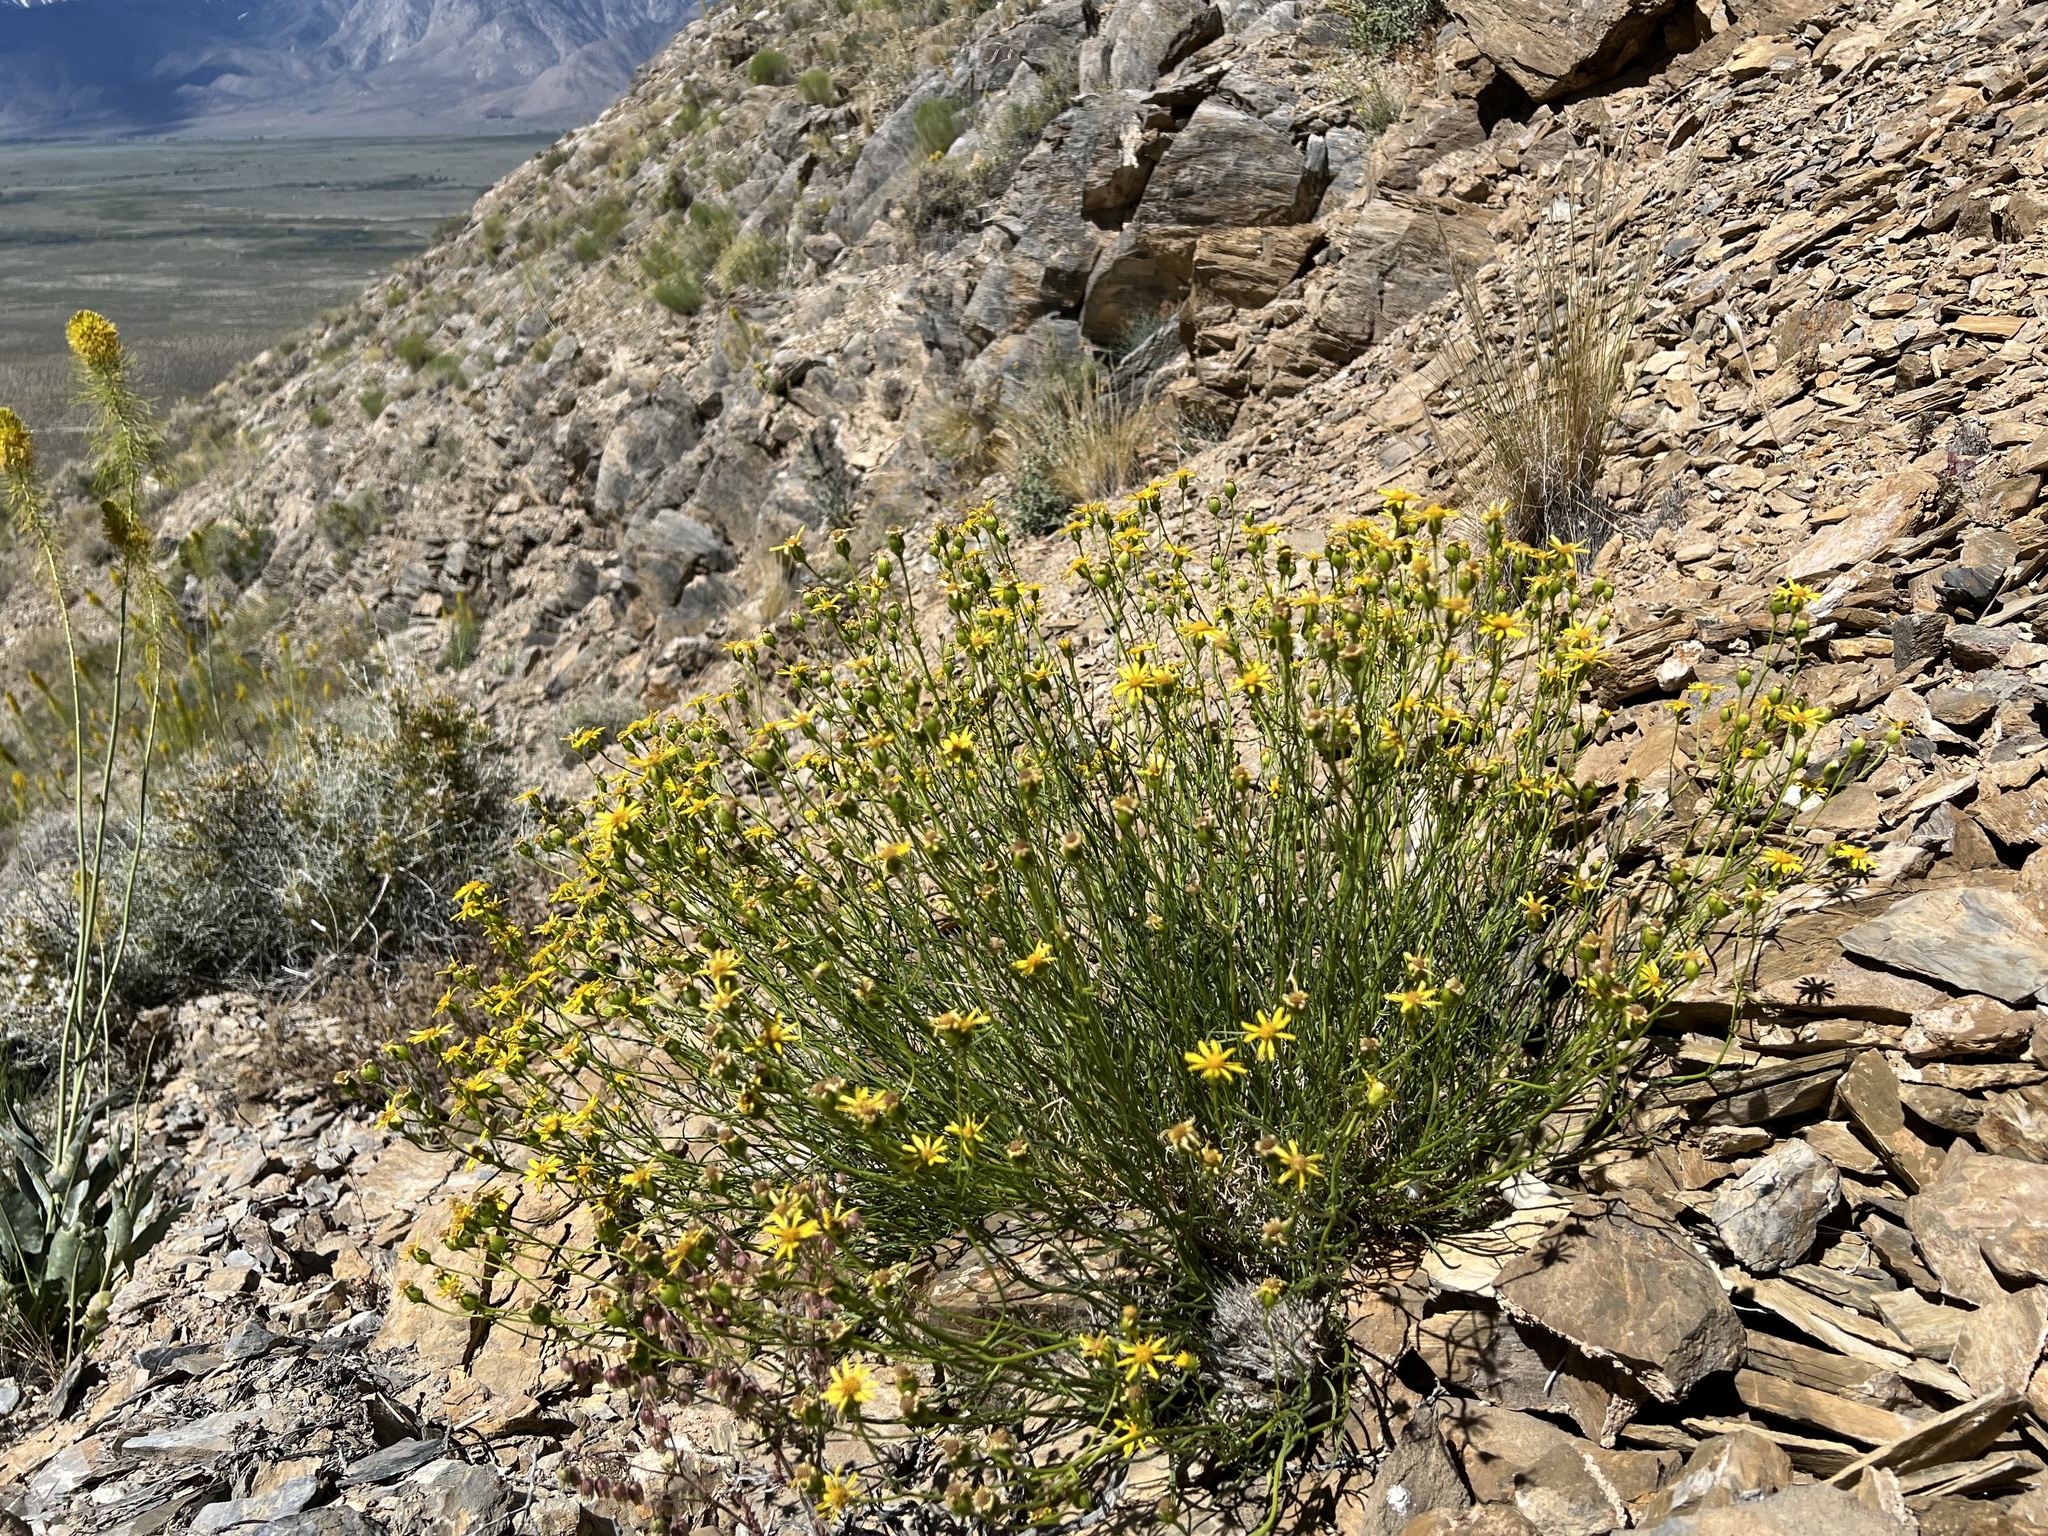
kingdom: Plantae
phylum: Tracheophyta
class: Magnoliopsida
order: Asterales
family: Asteraceae
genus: Senecio
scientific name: Senecio flaccidus
